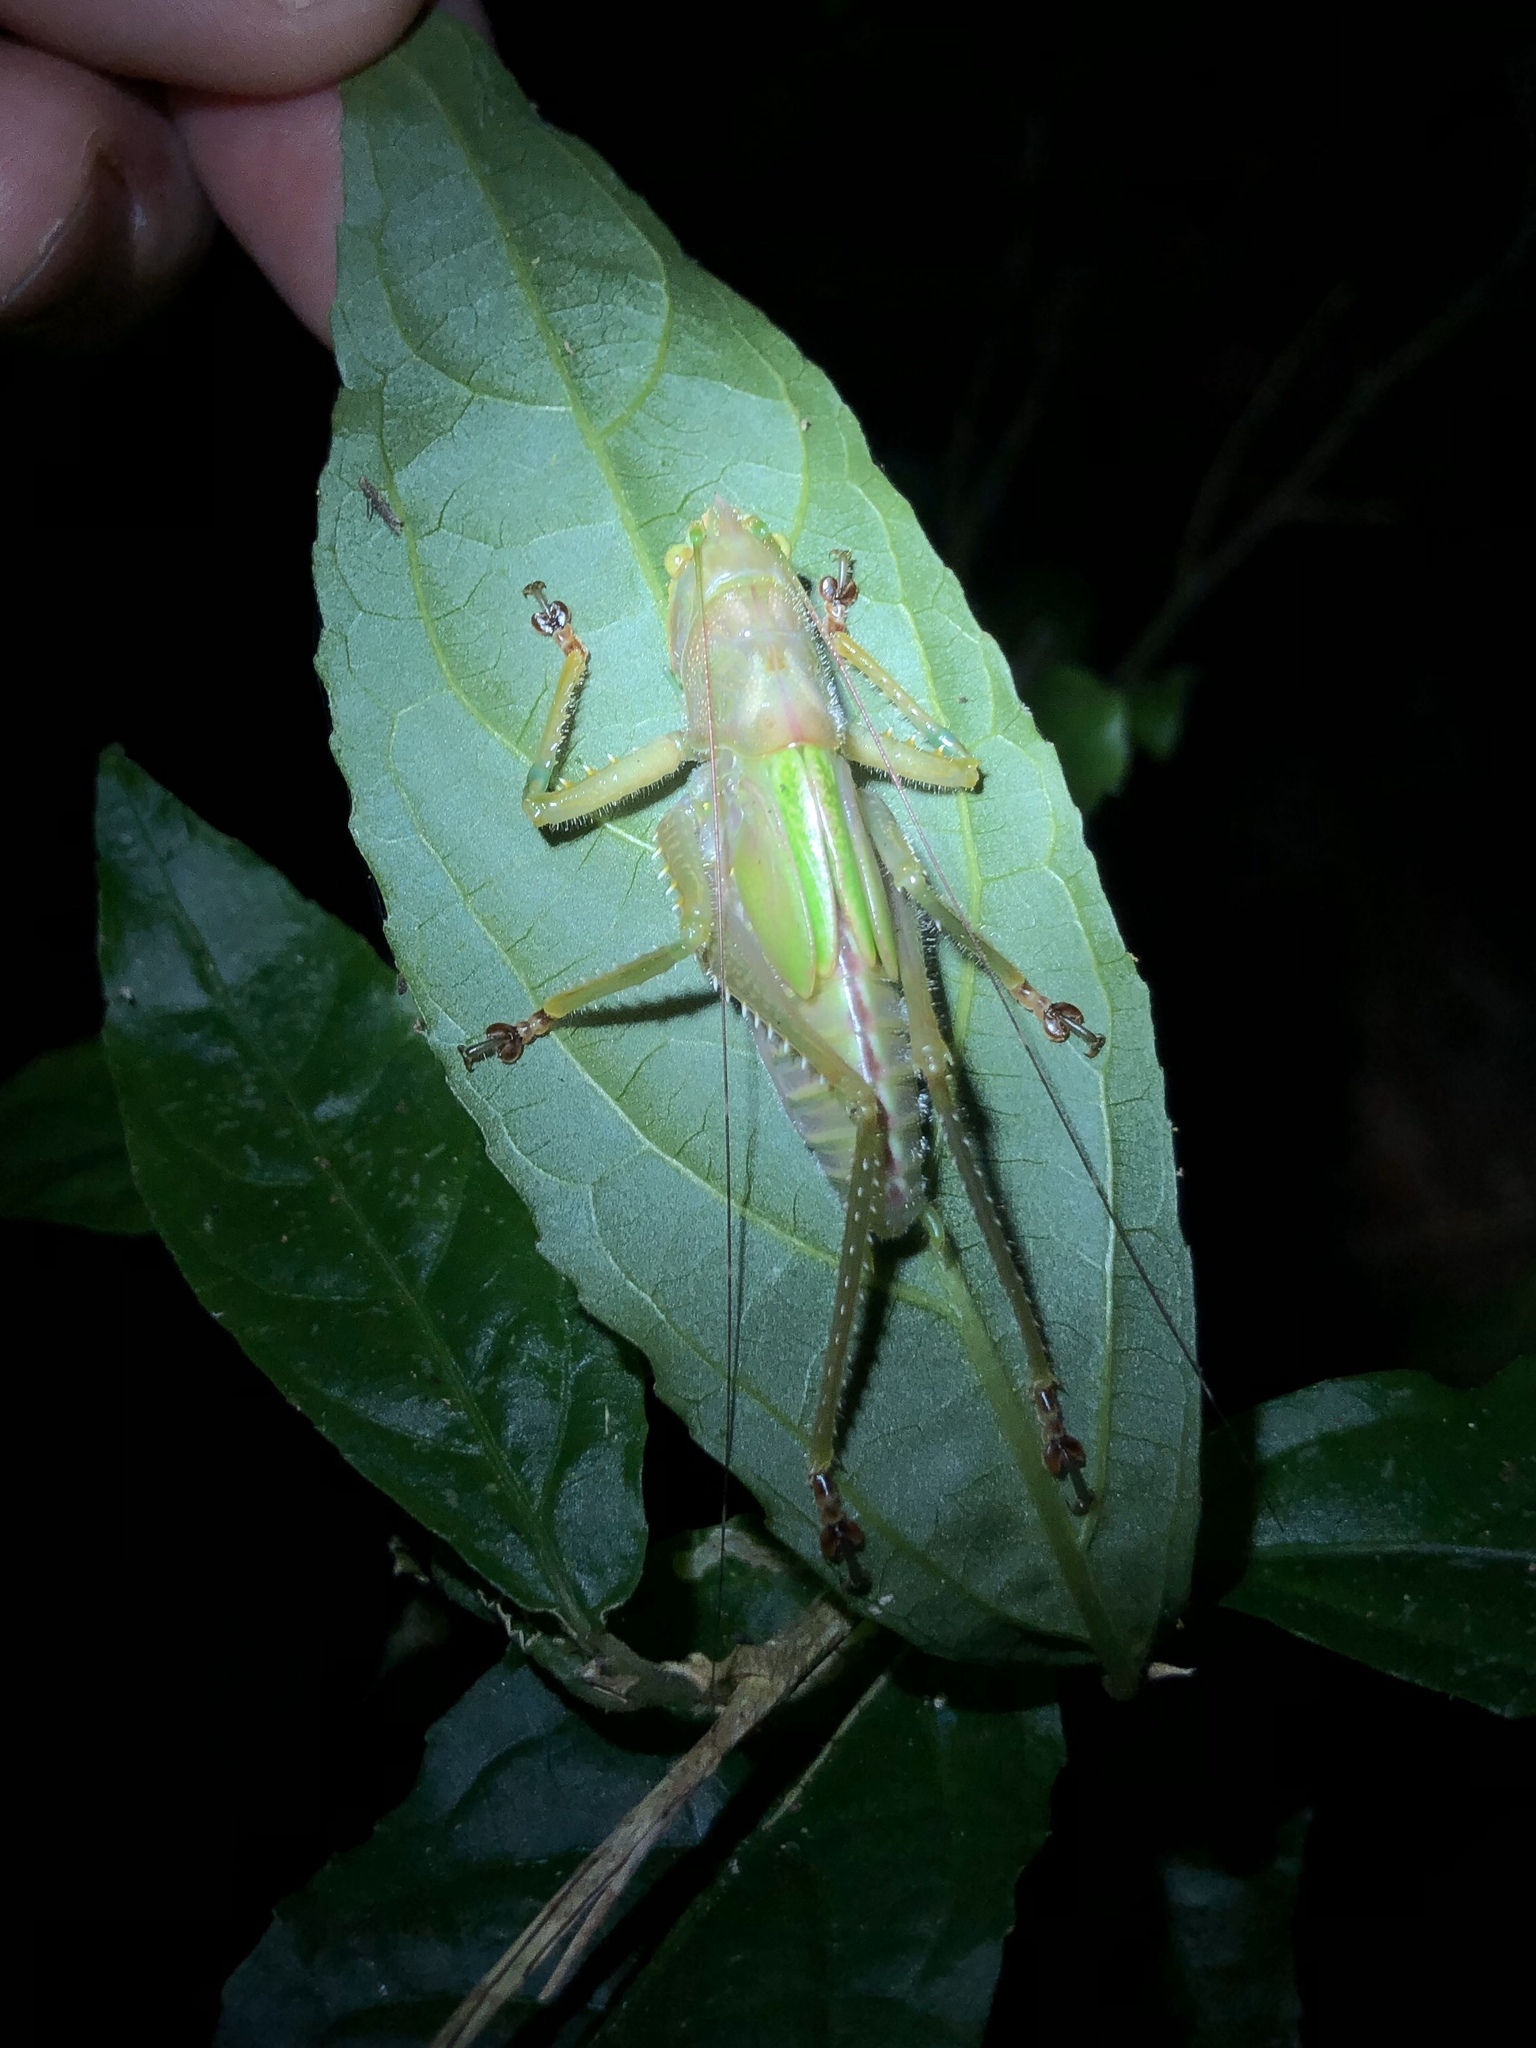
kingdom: Animalia
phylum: Arthropoda
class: Insecta
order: Orthoptera
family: Tettigoniidae
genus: Copiphora
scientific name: Copiphora brevirostris
